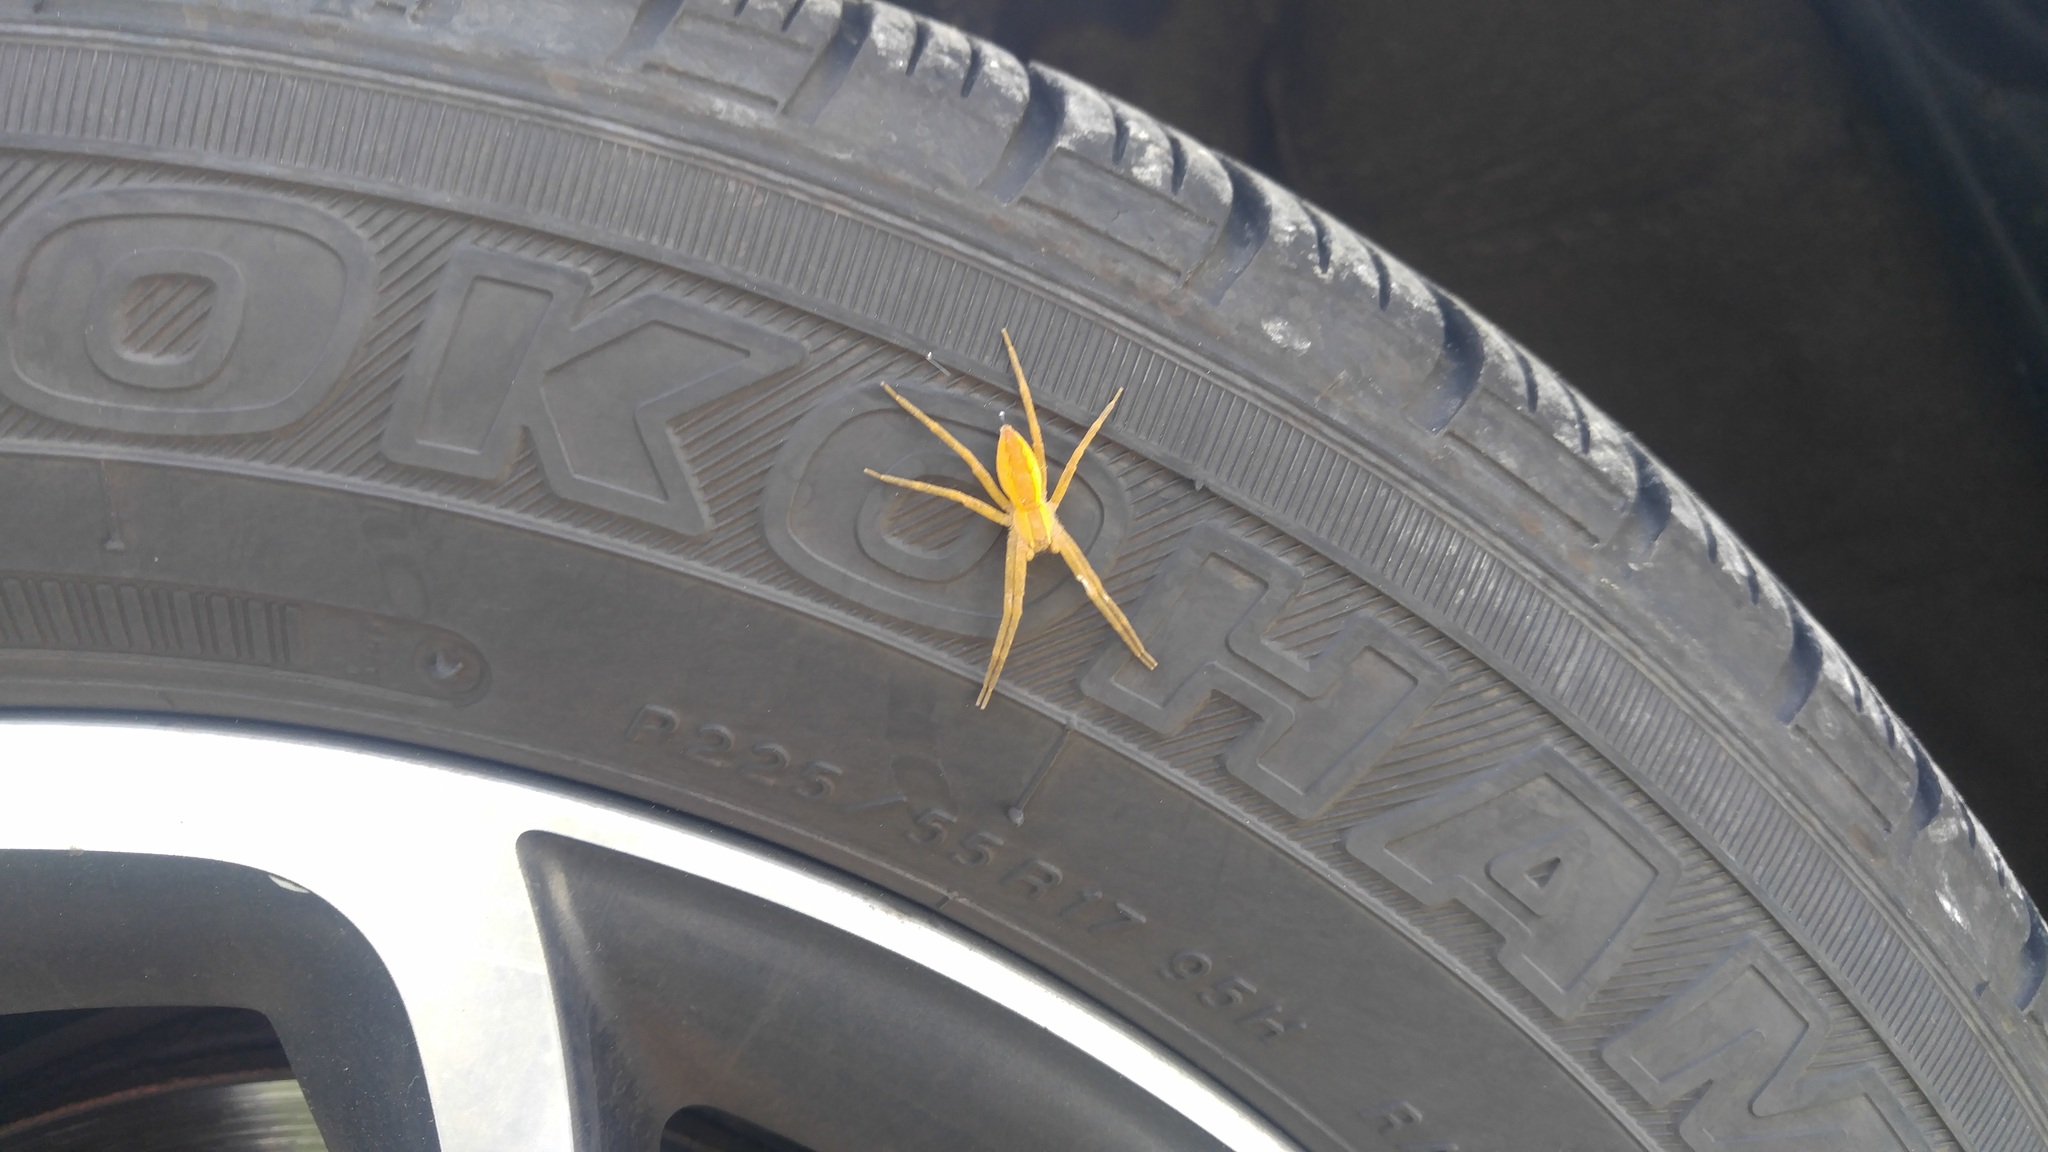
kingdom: Animalia
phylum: Arthropoda
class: Arachnida
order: Araneae
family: Pisauridae
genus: Pisaurina
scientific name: Pisaurina mira
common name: American nursery web spider
